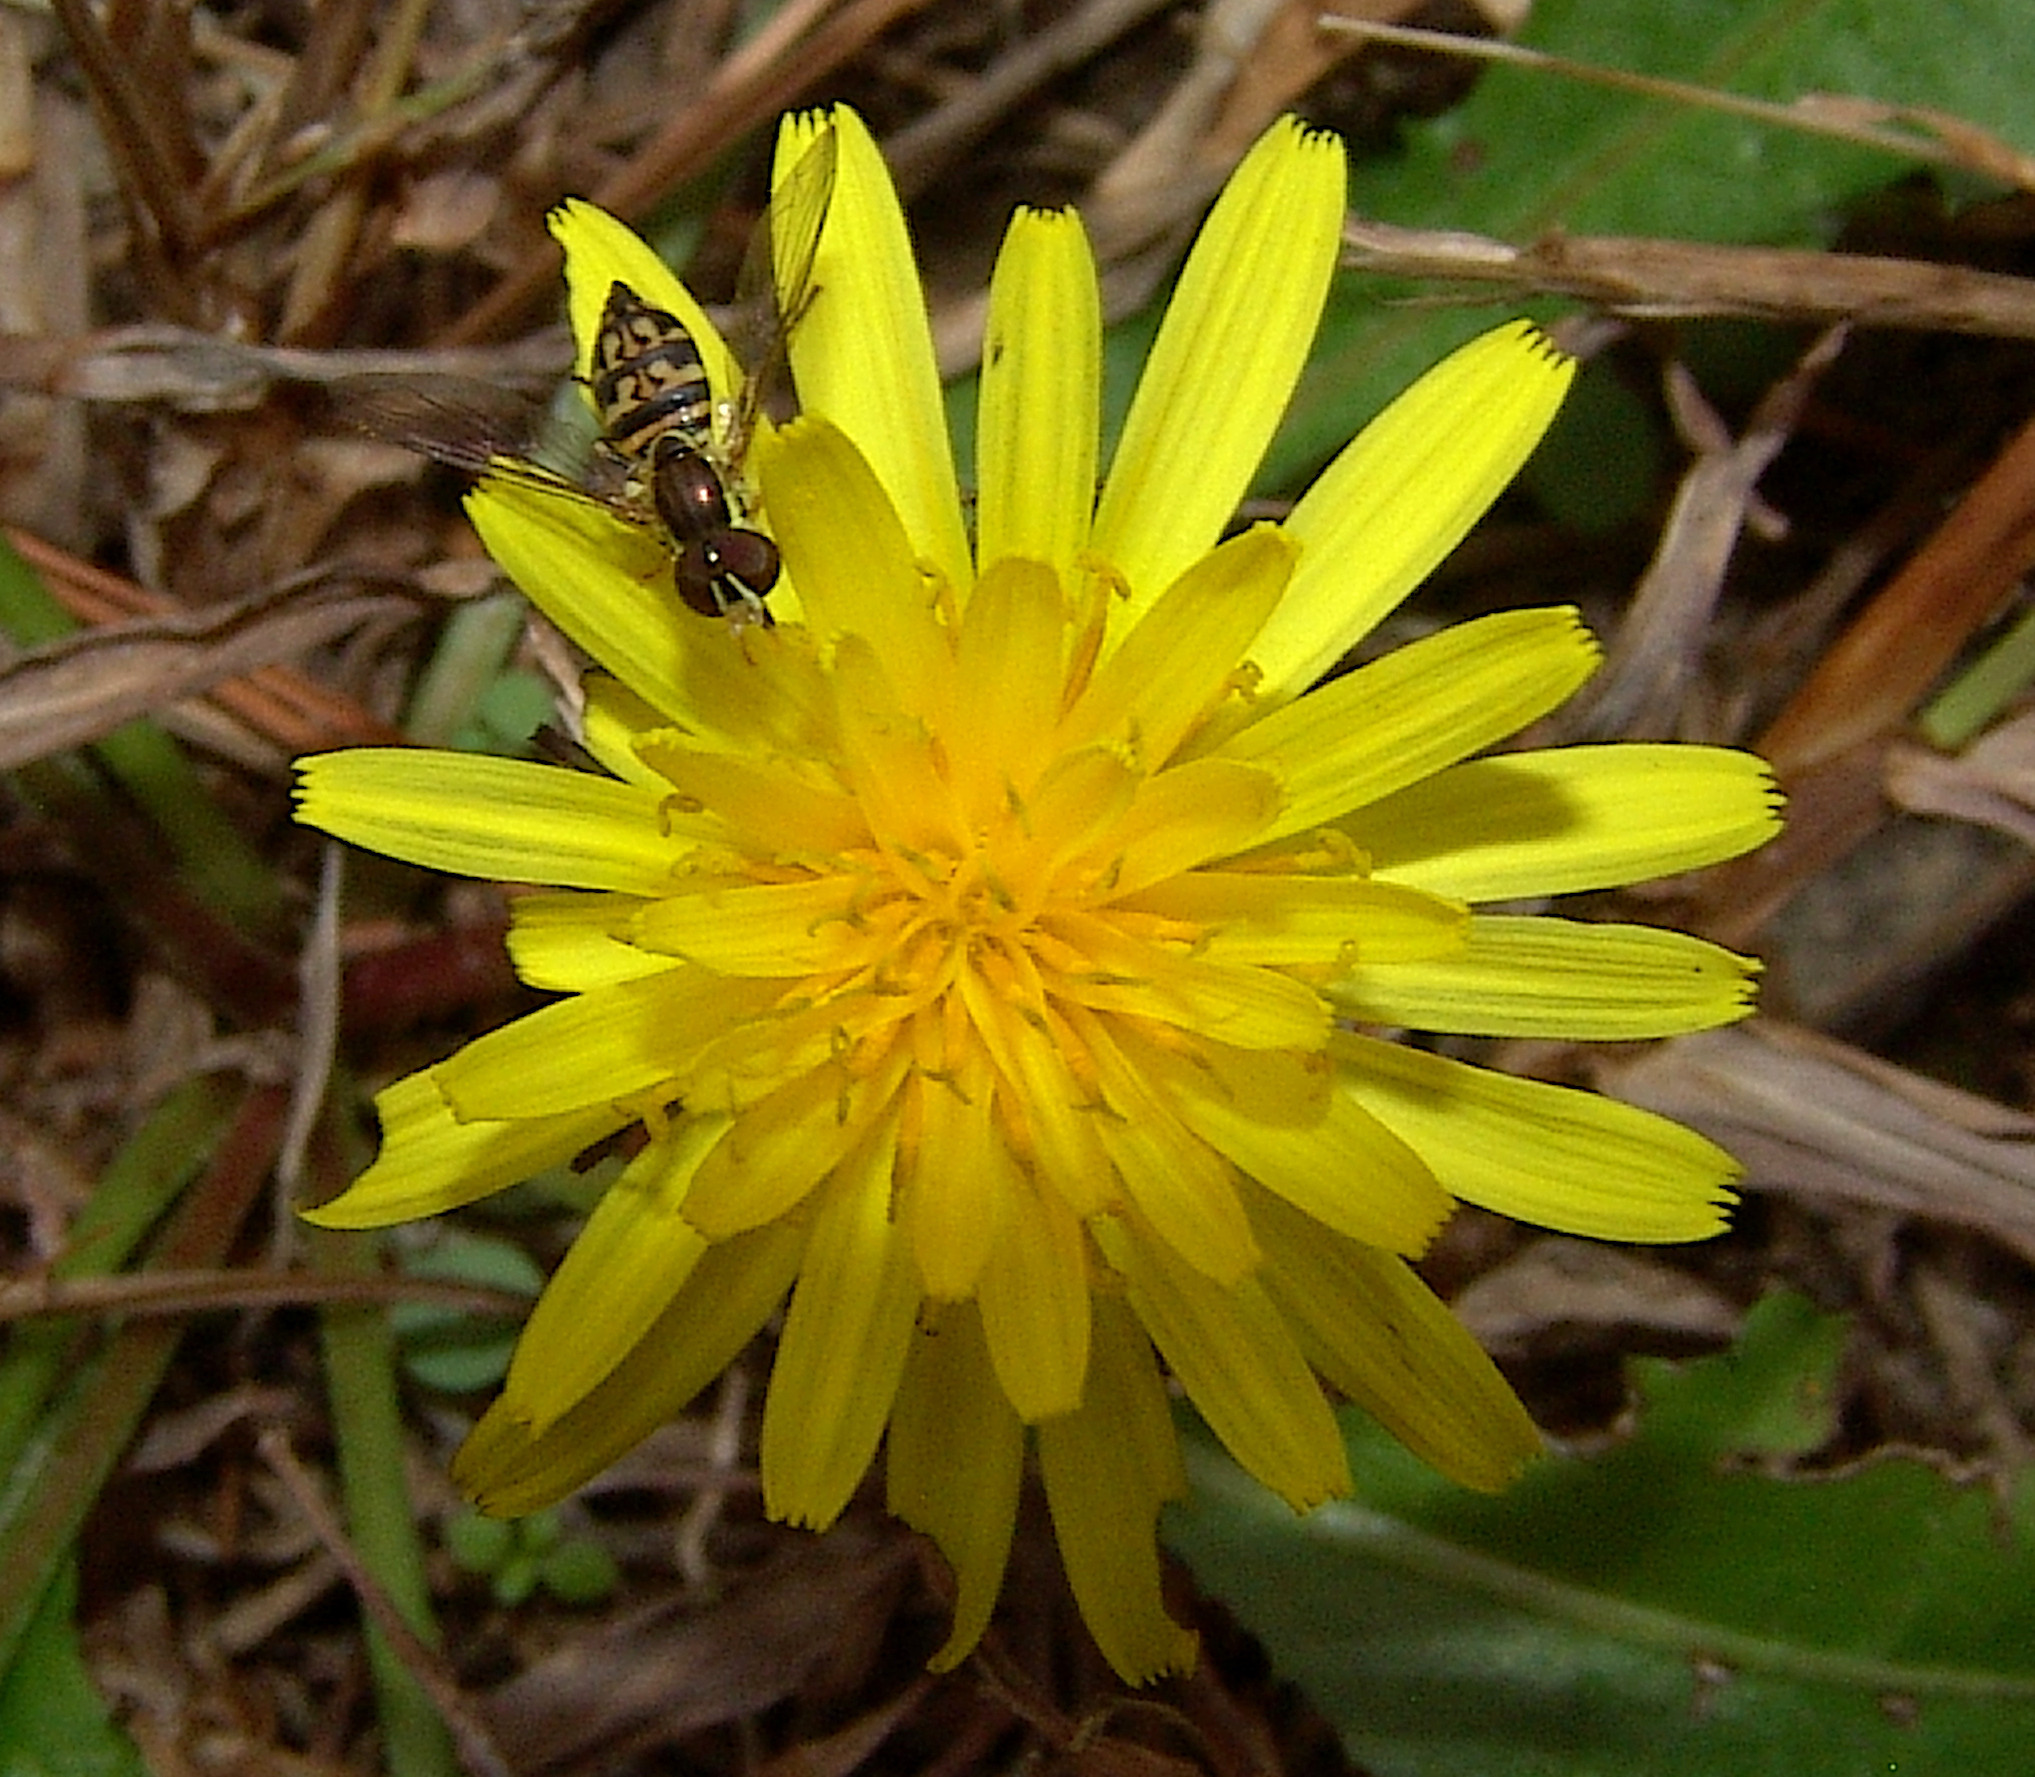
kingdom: Animalia
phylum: Arthropoda
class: Insecta
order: Diptera
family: Syrphidae
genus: Toxomerus
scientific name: Toxomerus geminatus
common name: Eastern calligrapher
